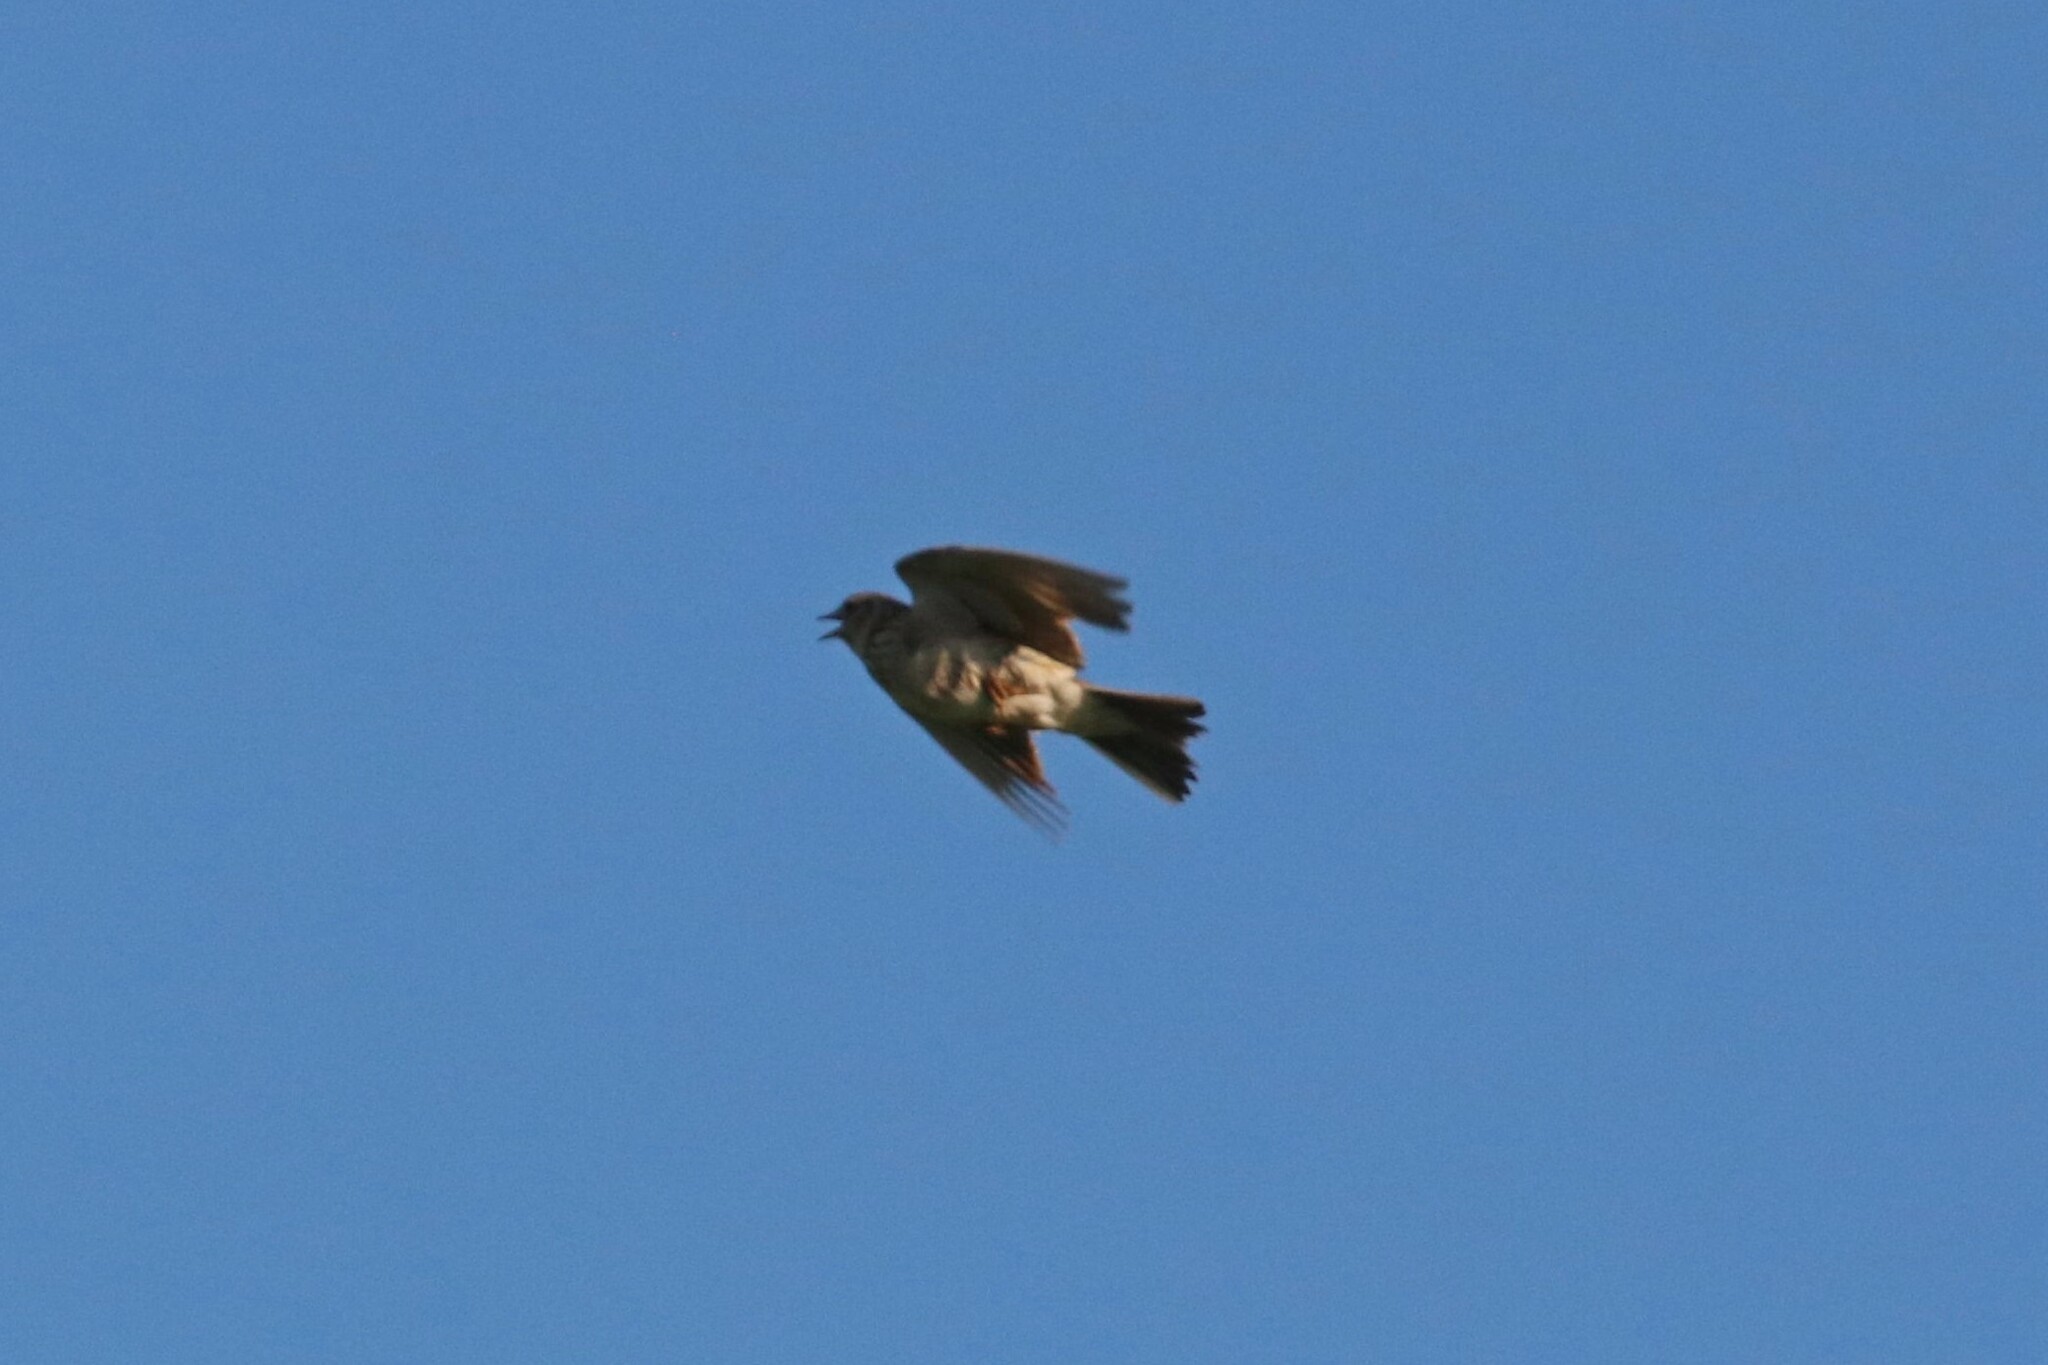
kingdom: Animalia
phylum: Chordata
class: Aves
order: Passeriformes
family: Alaudidae
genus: Alauda
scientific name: Alauda arvensis
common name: Eurasian skylark
